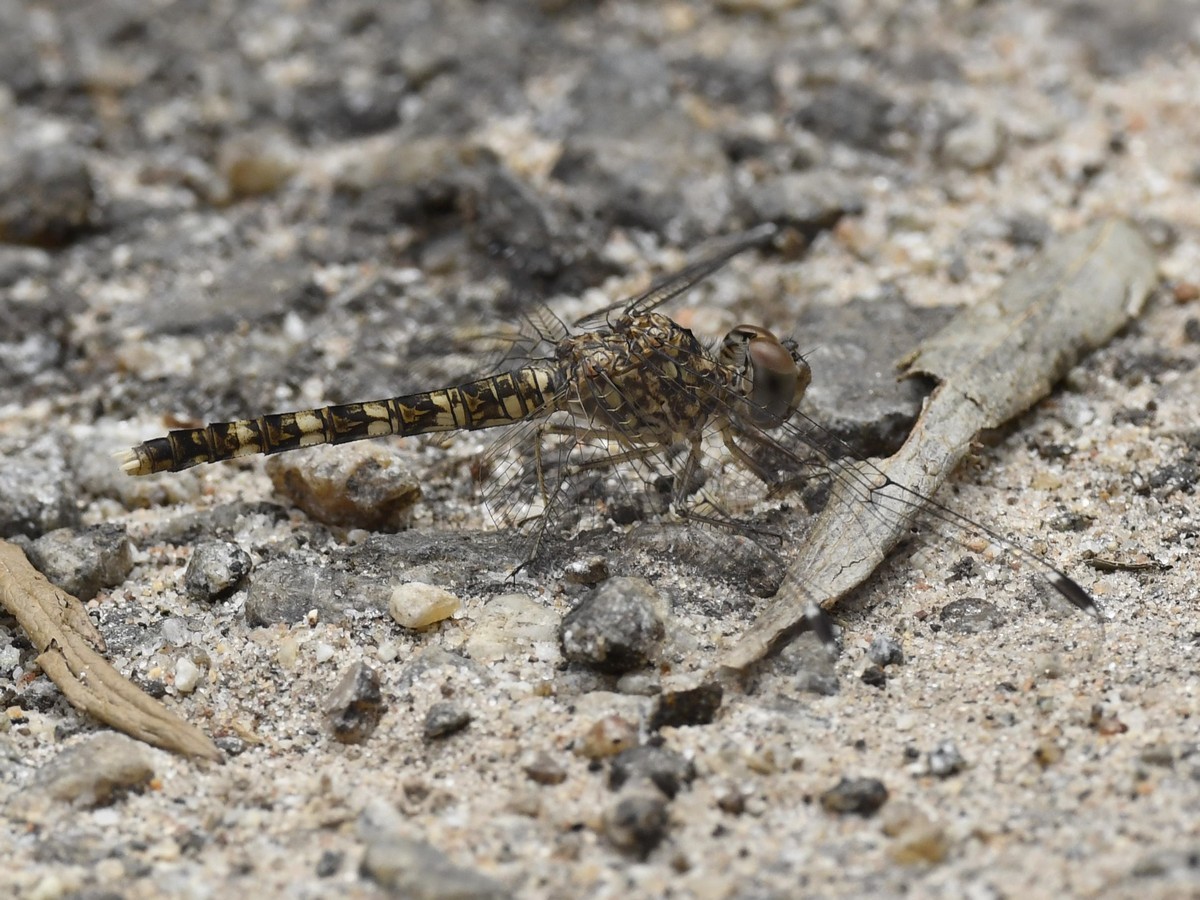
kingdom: Animalia
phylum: Arthropoda
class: Insecta
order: Odonata
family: Libellulidae
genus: Bradinopyga
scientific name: Bradinopyga geminata
